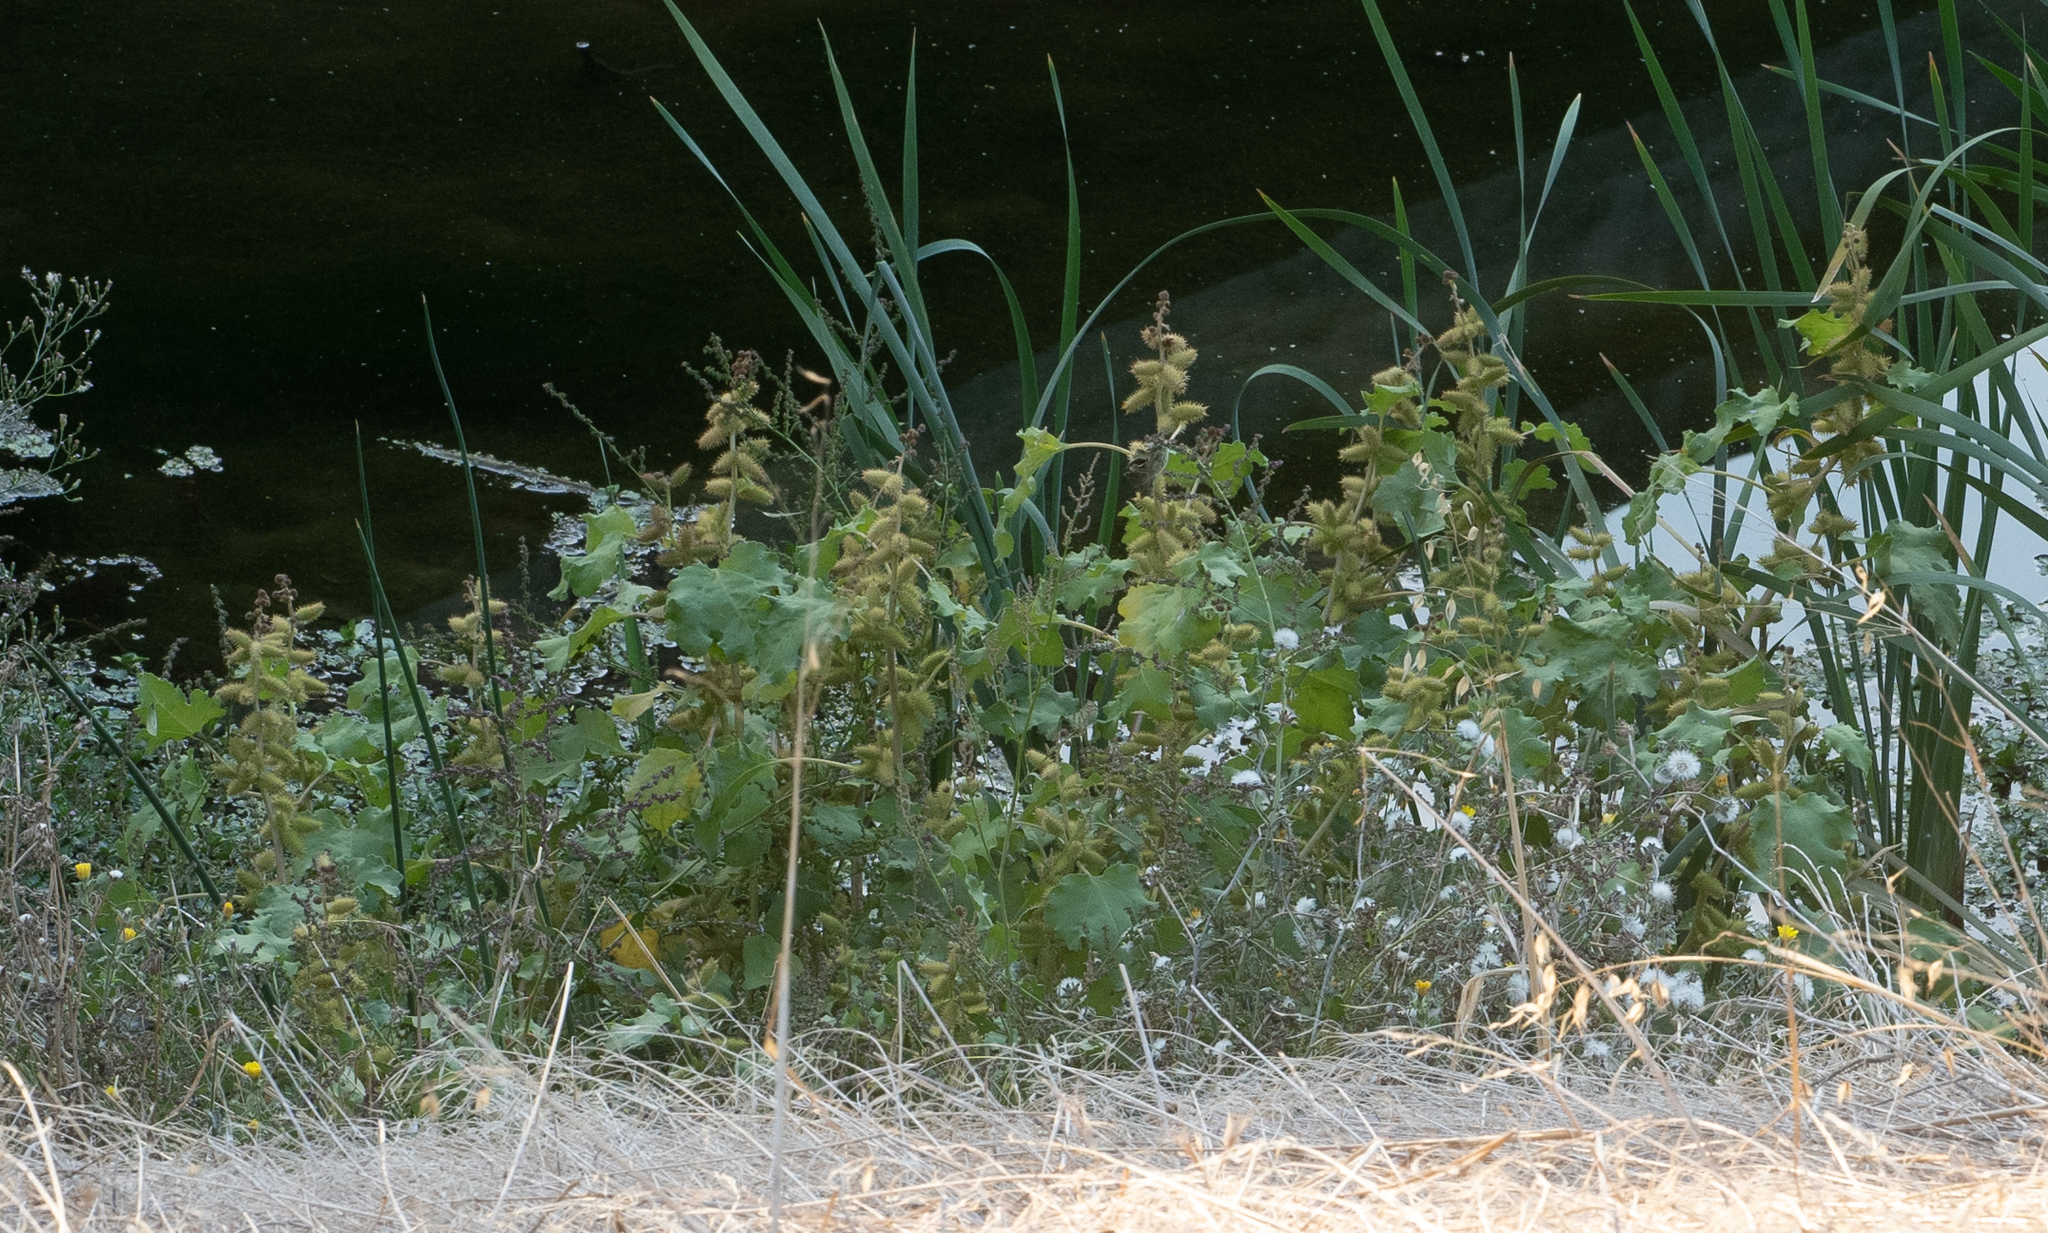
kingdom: Plantae
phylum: Tracheophyta
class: Magnoliopsida
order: Asterales
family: Asteraceae
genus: Xanthium
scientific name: Xanthium strumarium
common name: Rough cocklebur
